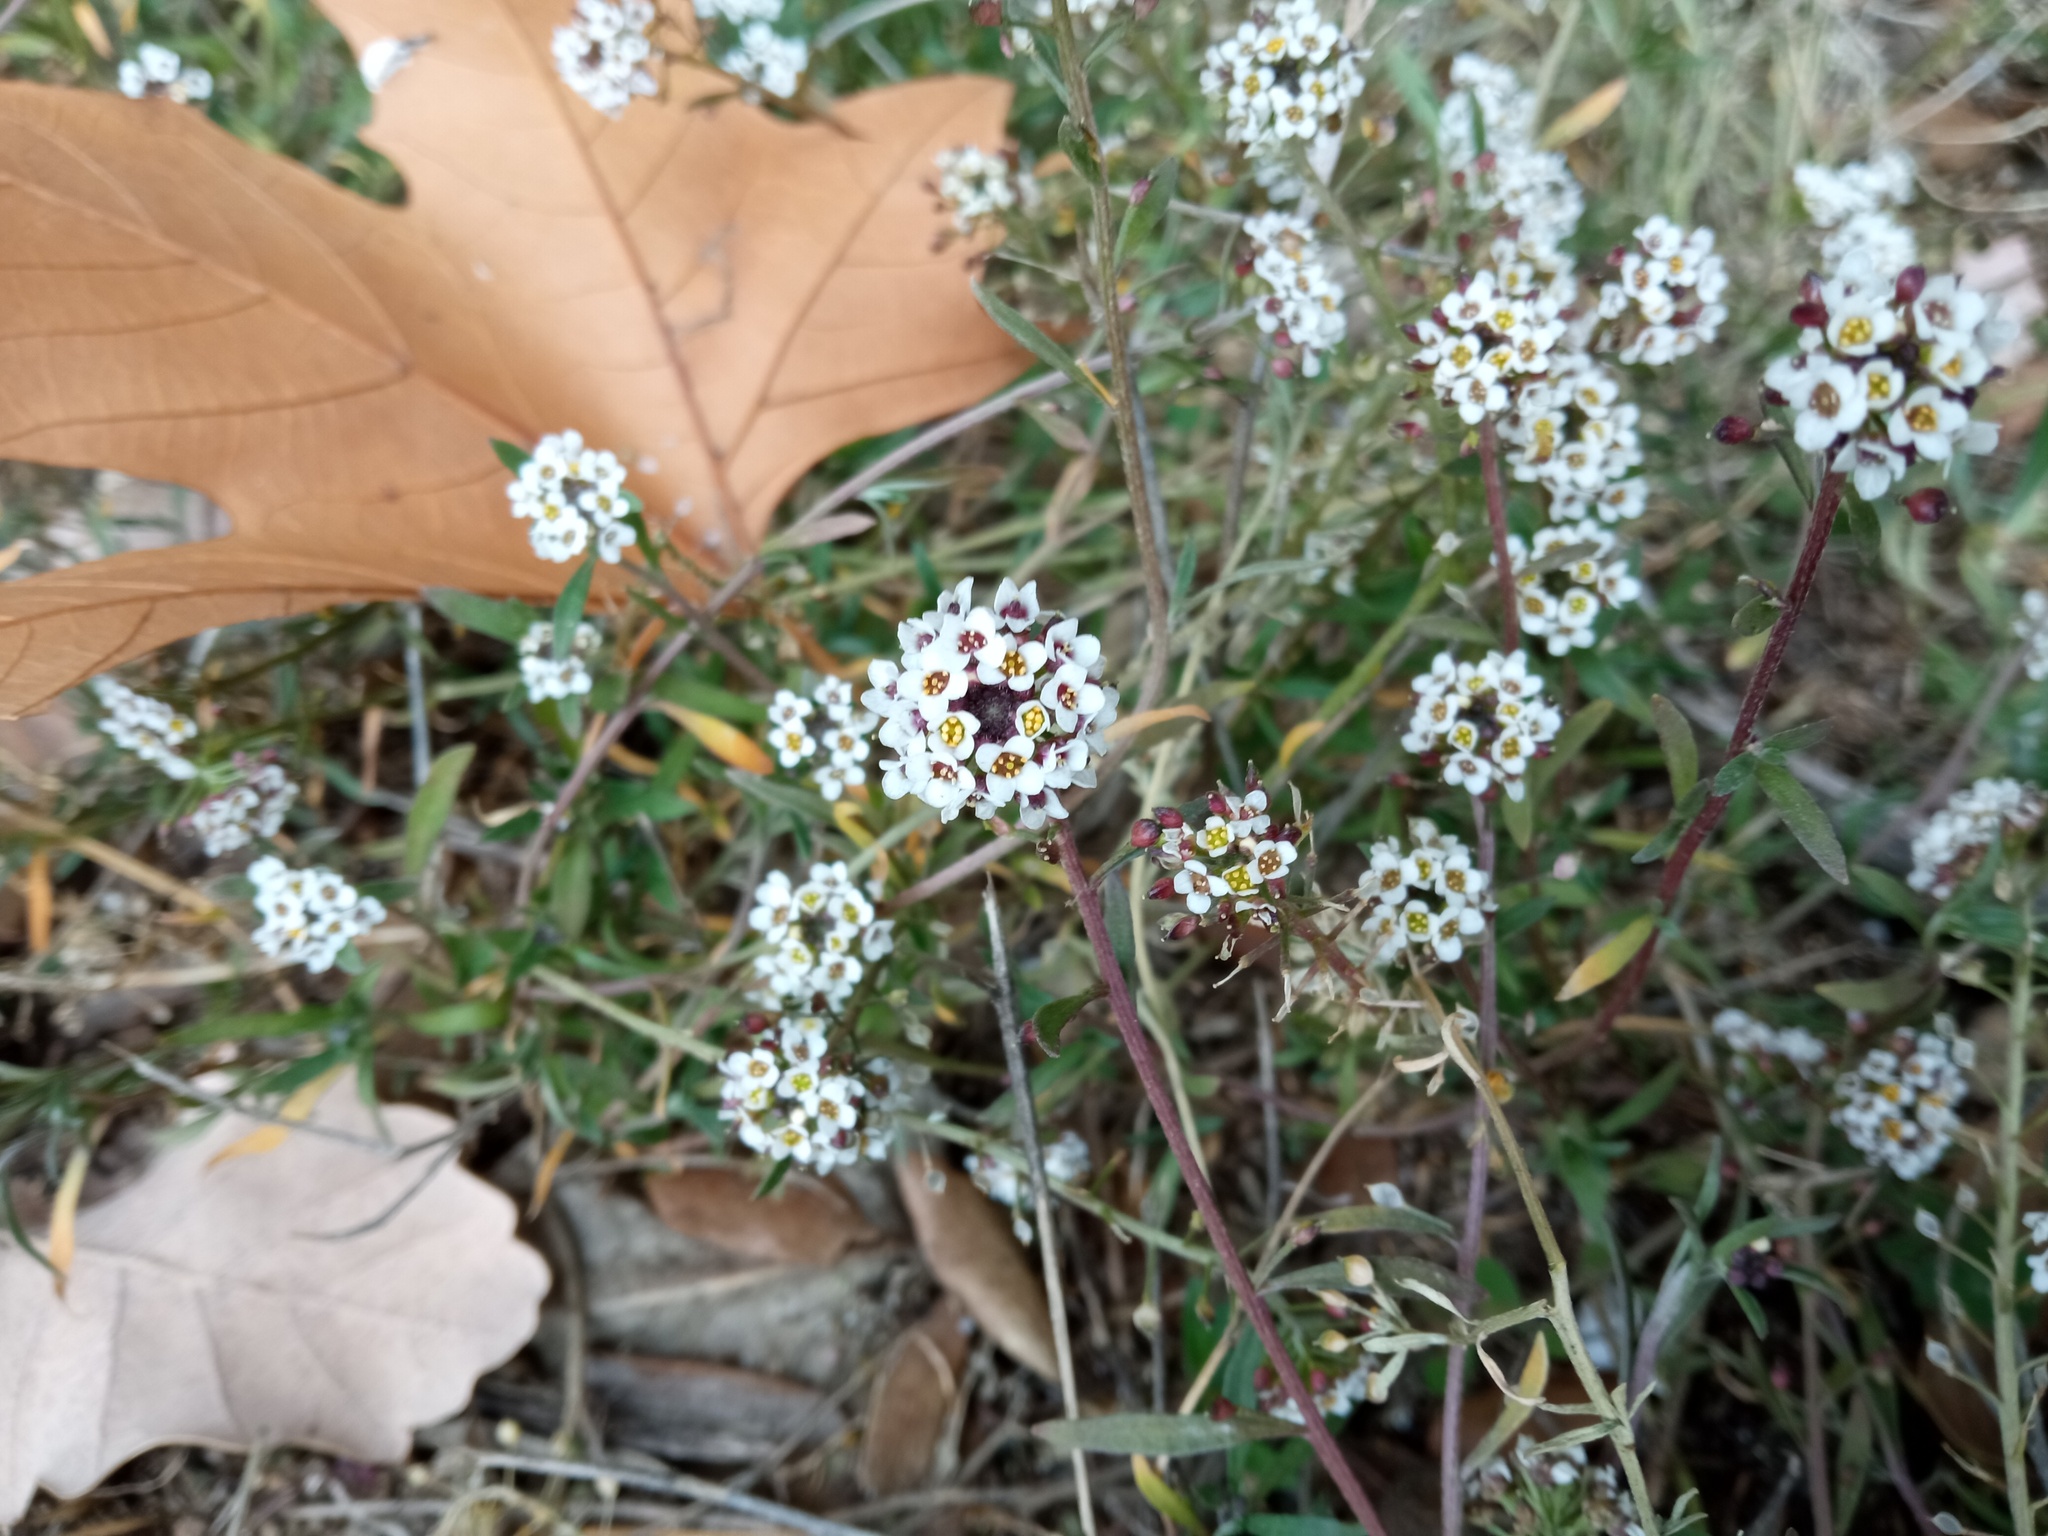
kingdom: Plantae
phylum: Tracheophyta
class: Magnoliopsida
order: Brassicales
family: Brassicaceae
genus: Lobularia
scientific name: Lobularia maritima
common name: Sweet alison
